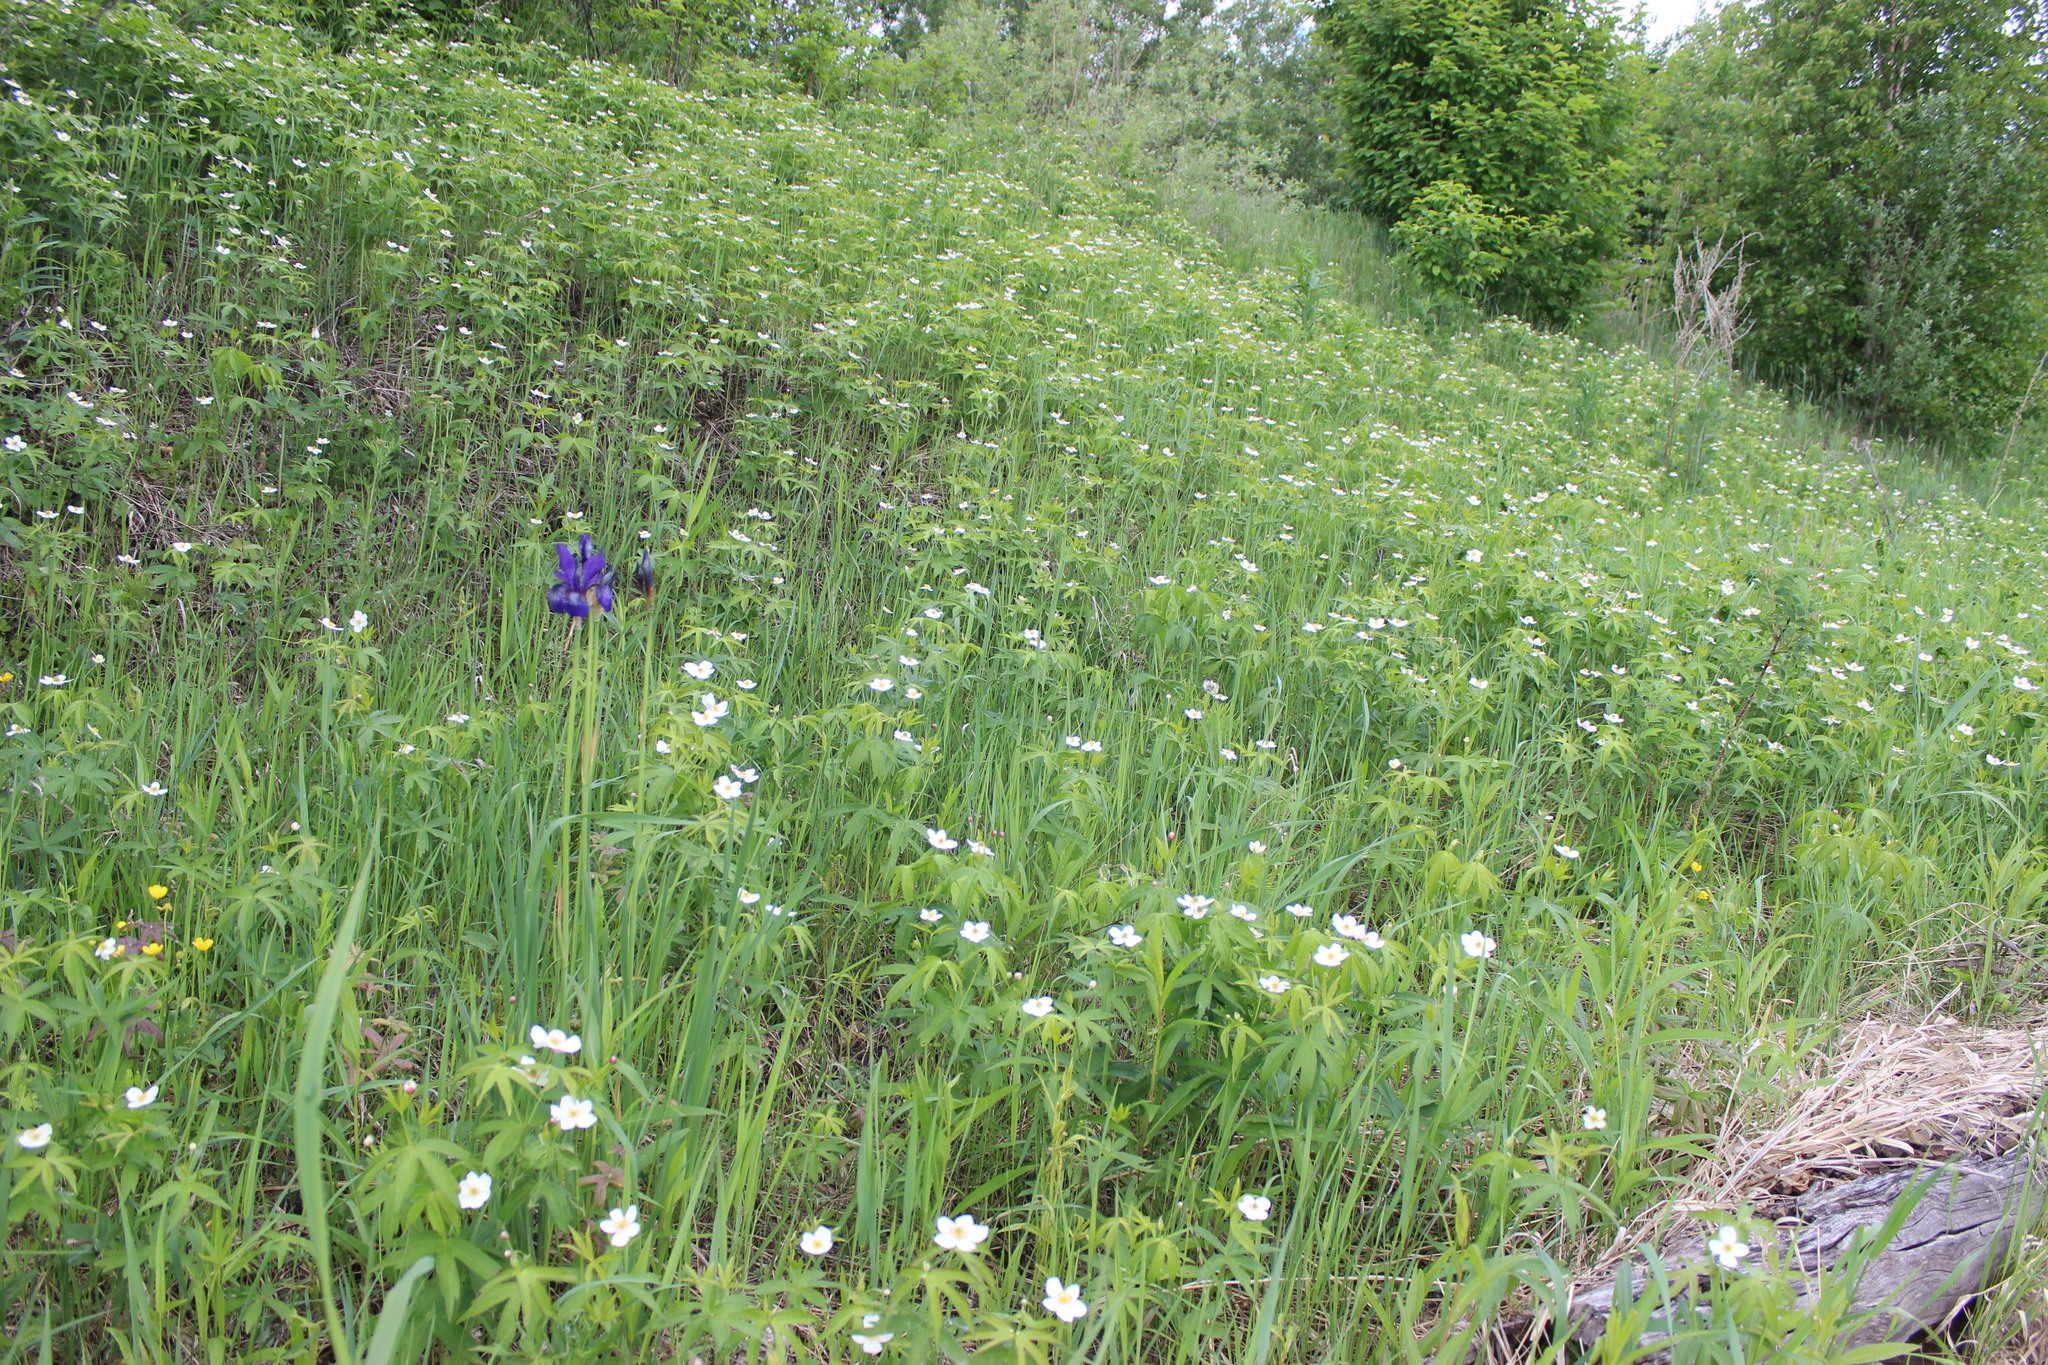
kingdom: Plantae
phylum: Tracheophyta
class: Liliopsida
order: Asparagales
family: Iridaceae
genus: Iris
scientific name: Iris sibirica
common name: Siberian iris
